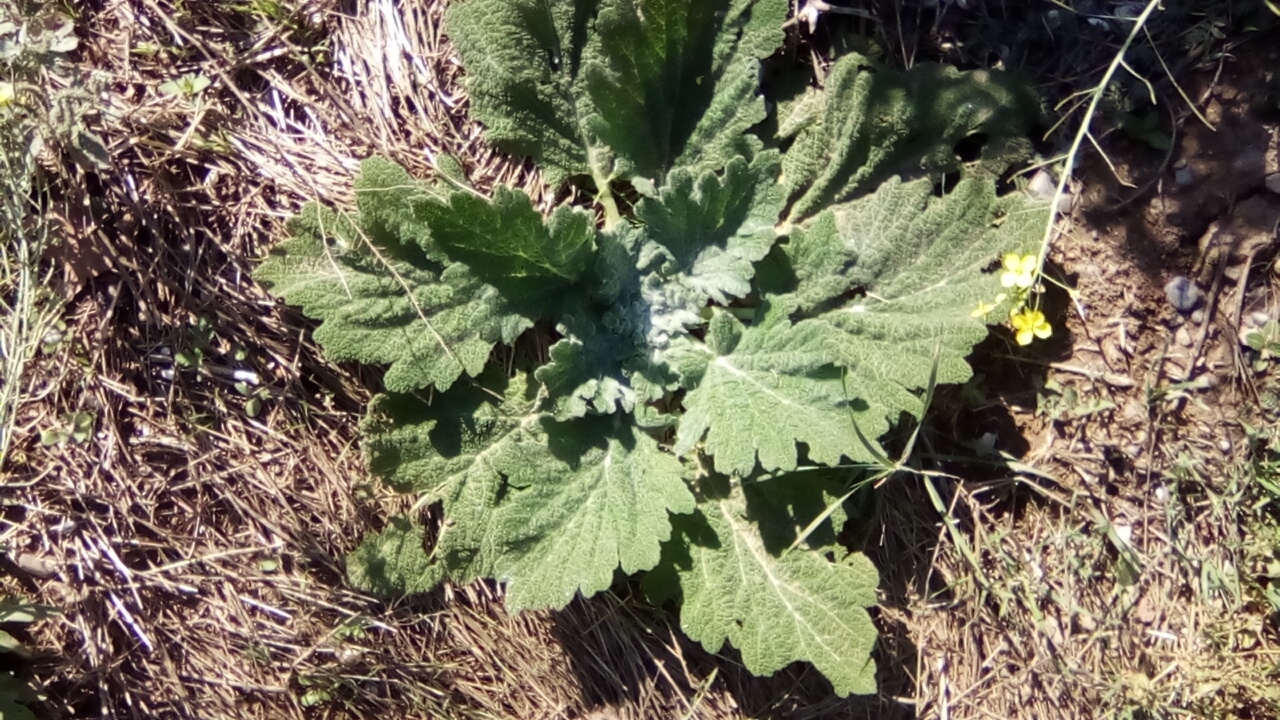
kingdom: Plantae
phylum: Tracheophyta
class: Magnoliopsida
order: Lamiales
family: Lamiaceae
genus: Salvia
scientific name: Salvia aethiopis
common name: Mediterranean sage
